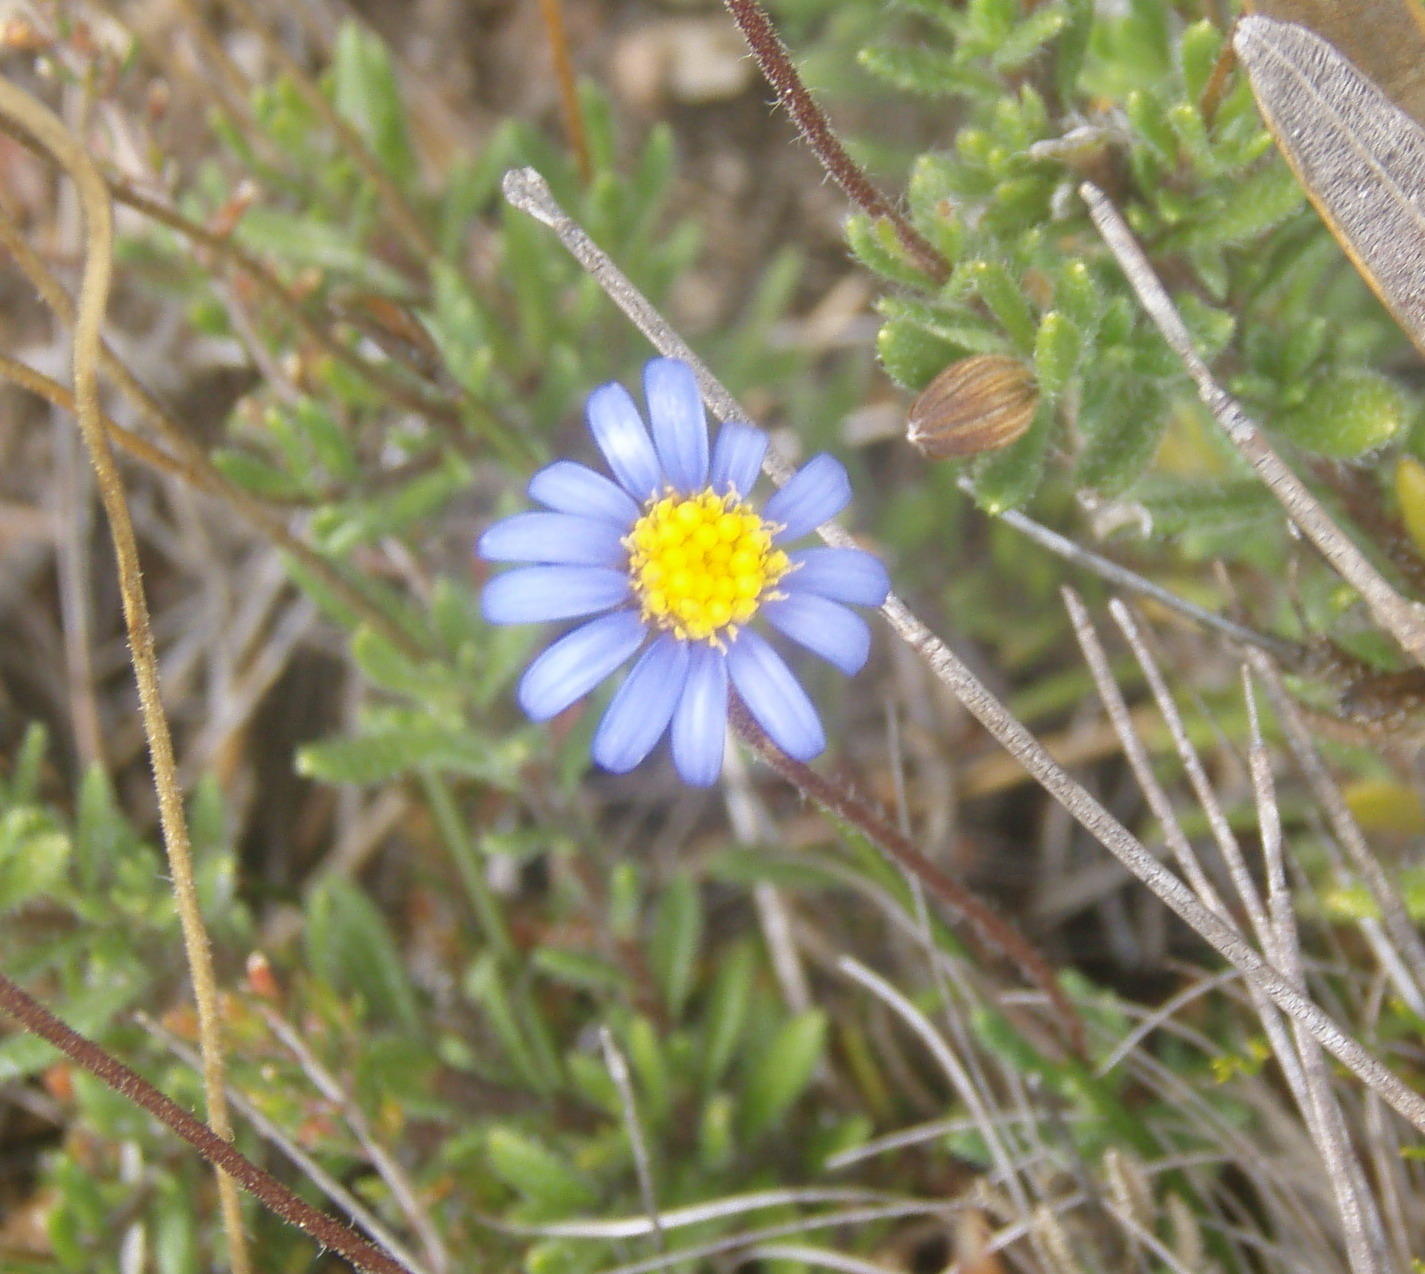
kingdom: Plantae
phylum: Tracheophyta
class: Magnoliopsida
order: Asterales
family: Asteraceae
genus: Felicia
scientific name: Felicia amoena
